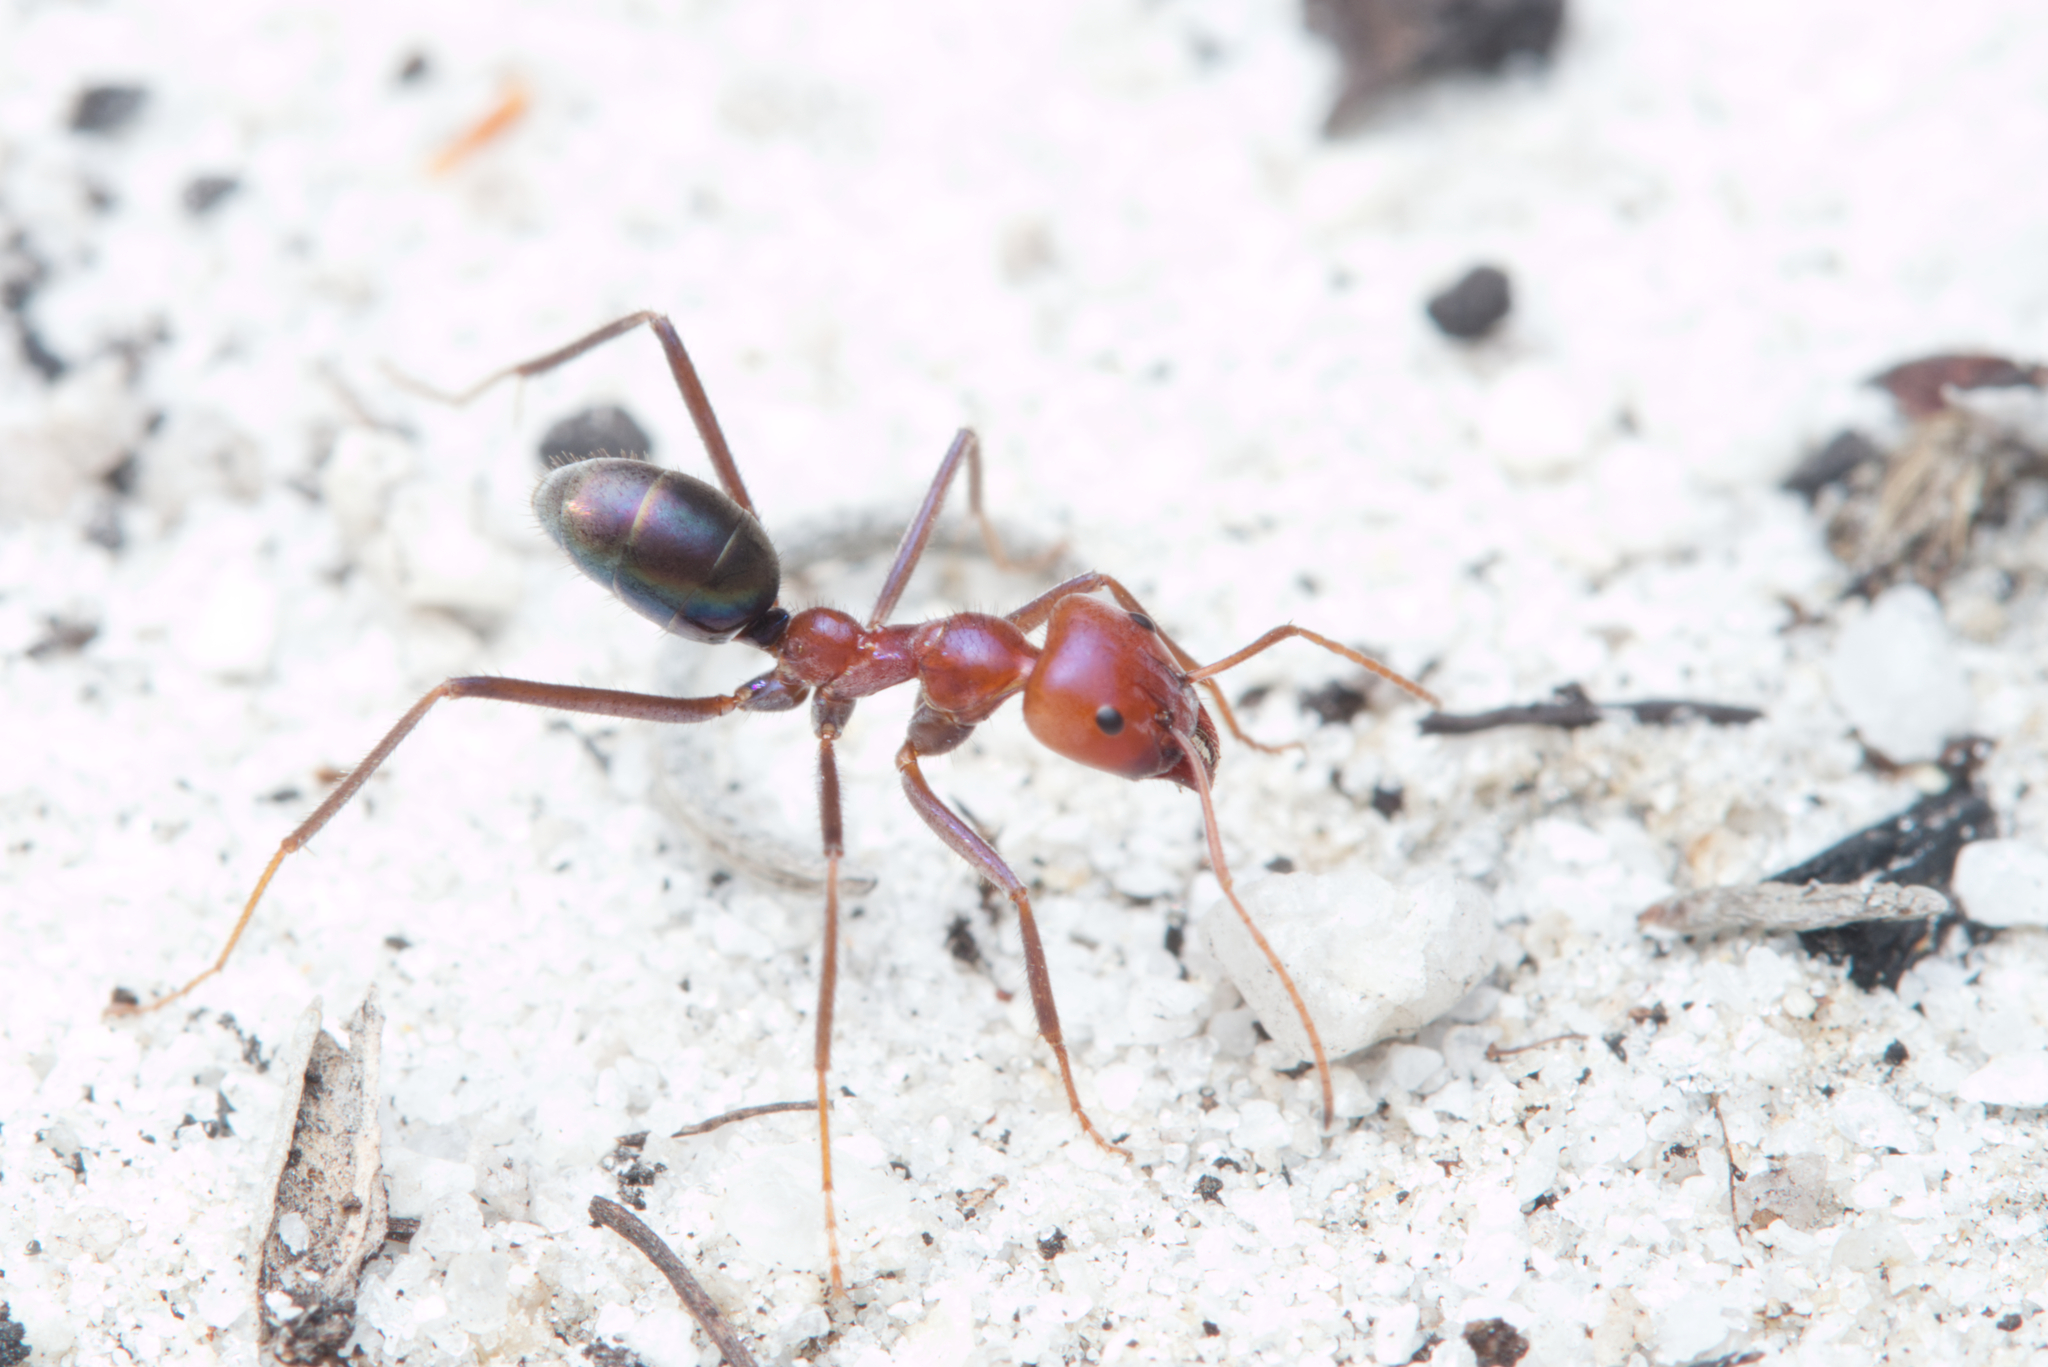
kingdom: Animalia
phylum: Arthropoda
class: Insecta
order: Hymenoptera
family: Formicidae
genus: Iridomyrmex
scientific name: Iridomyrmex purpureus
